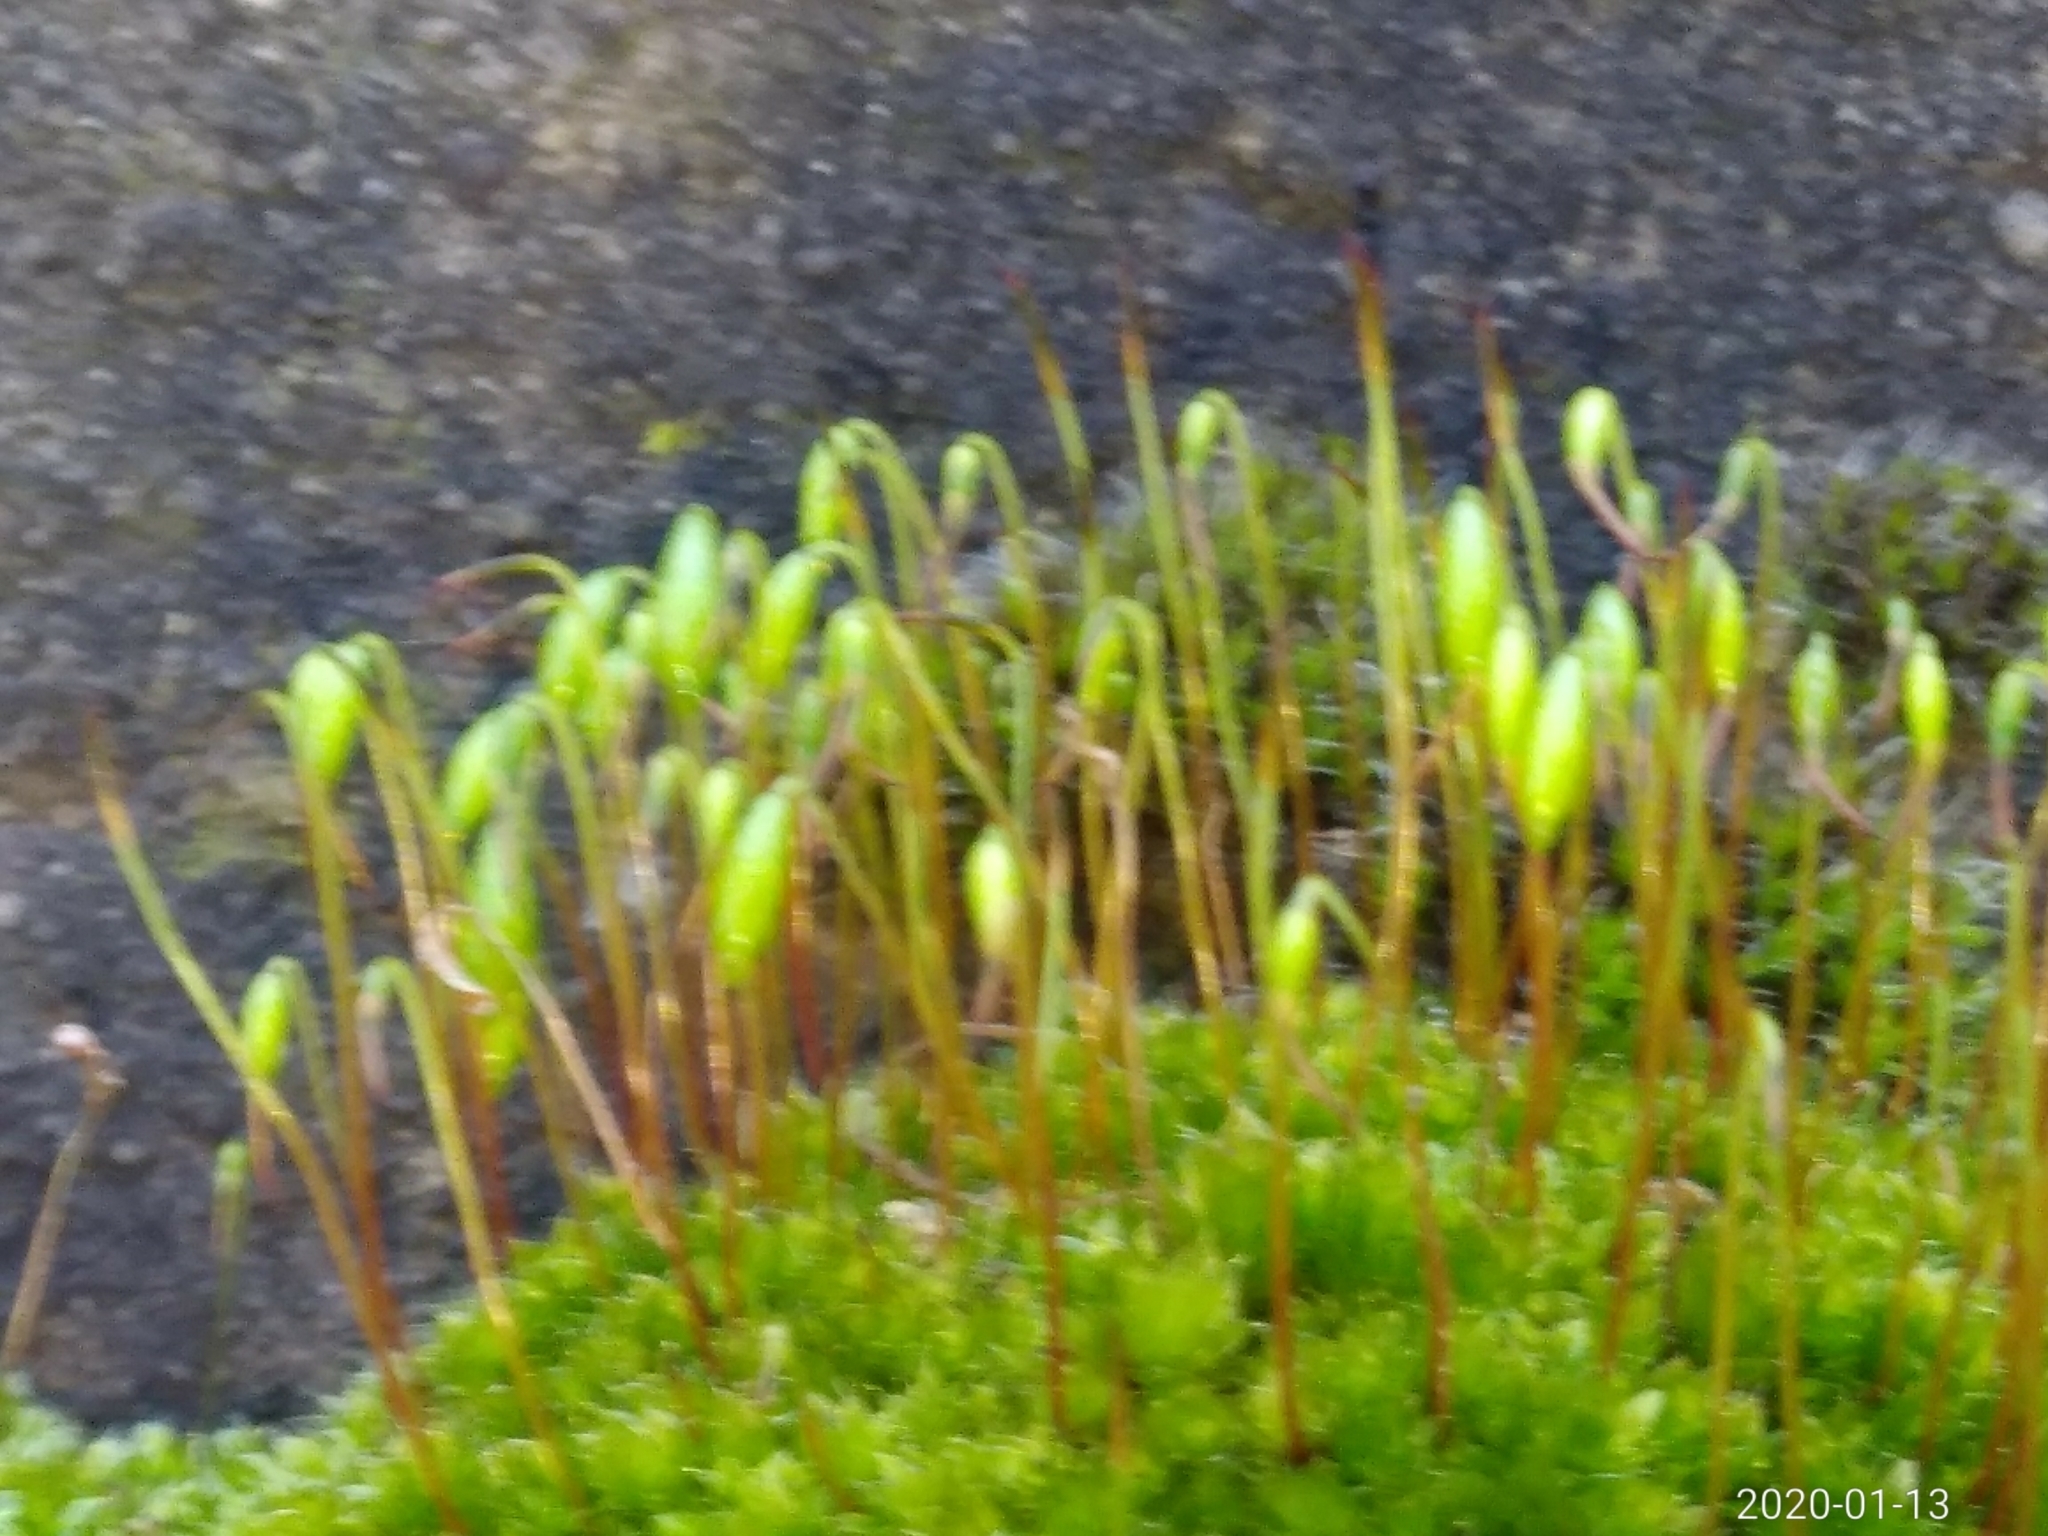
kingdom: Plantae
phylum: Bryophyta
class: Bryopsida
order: Bryales
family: Bryaceae
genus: Rosulabryum
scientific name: Rosulabryum capillare
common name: Capillary thread-moss
